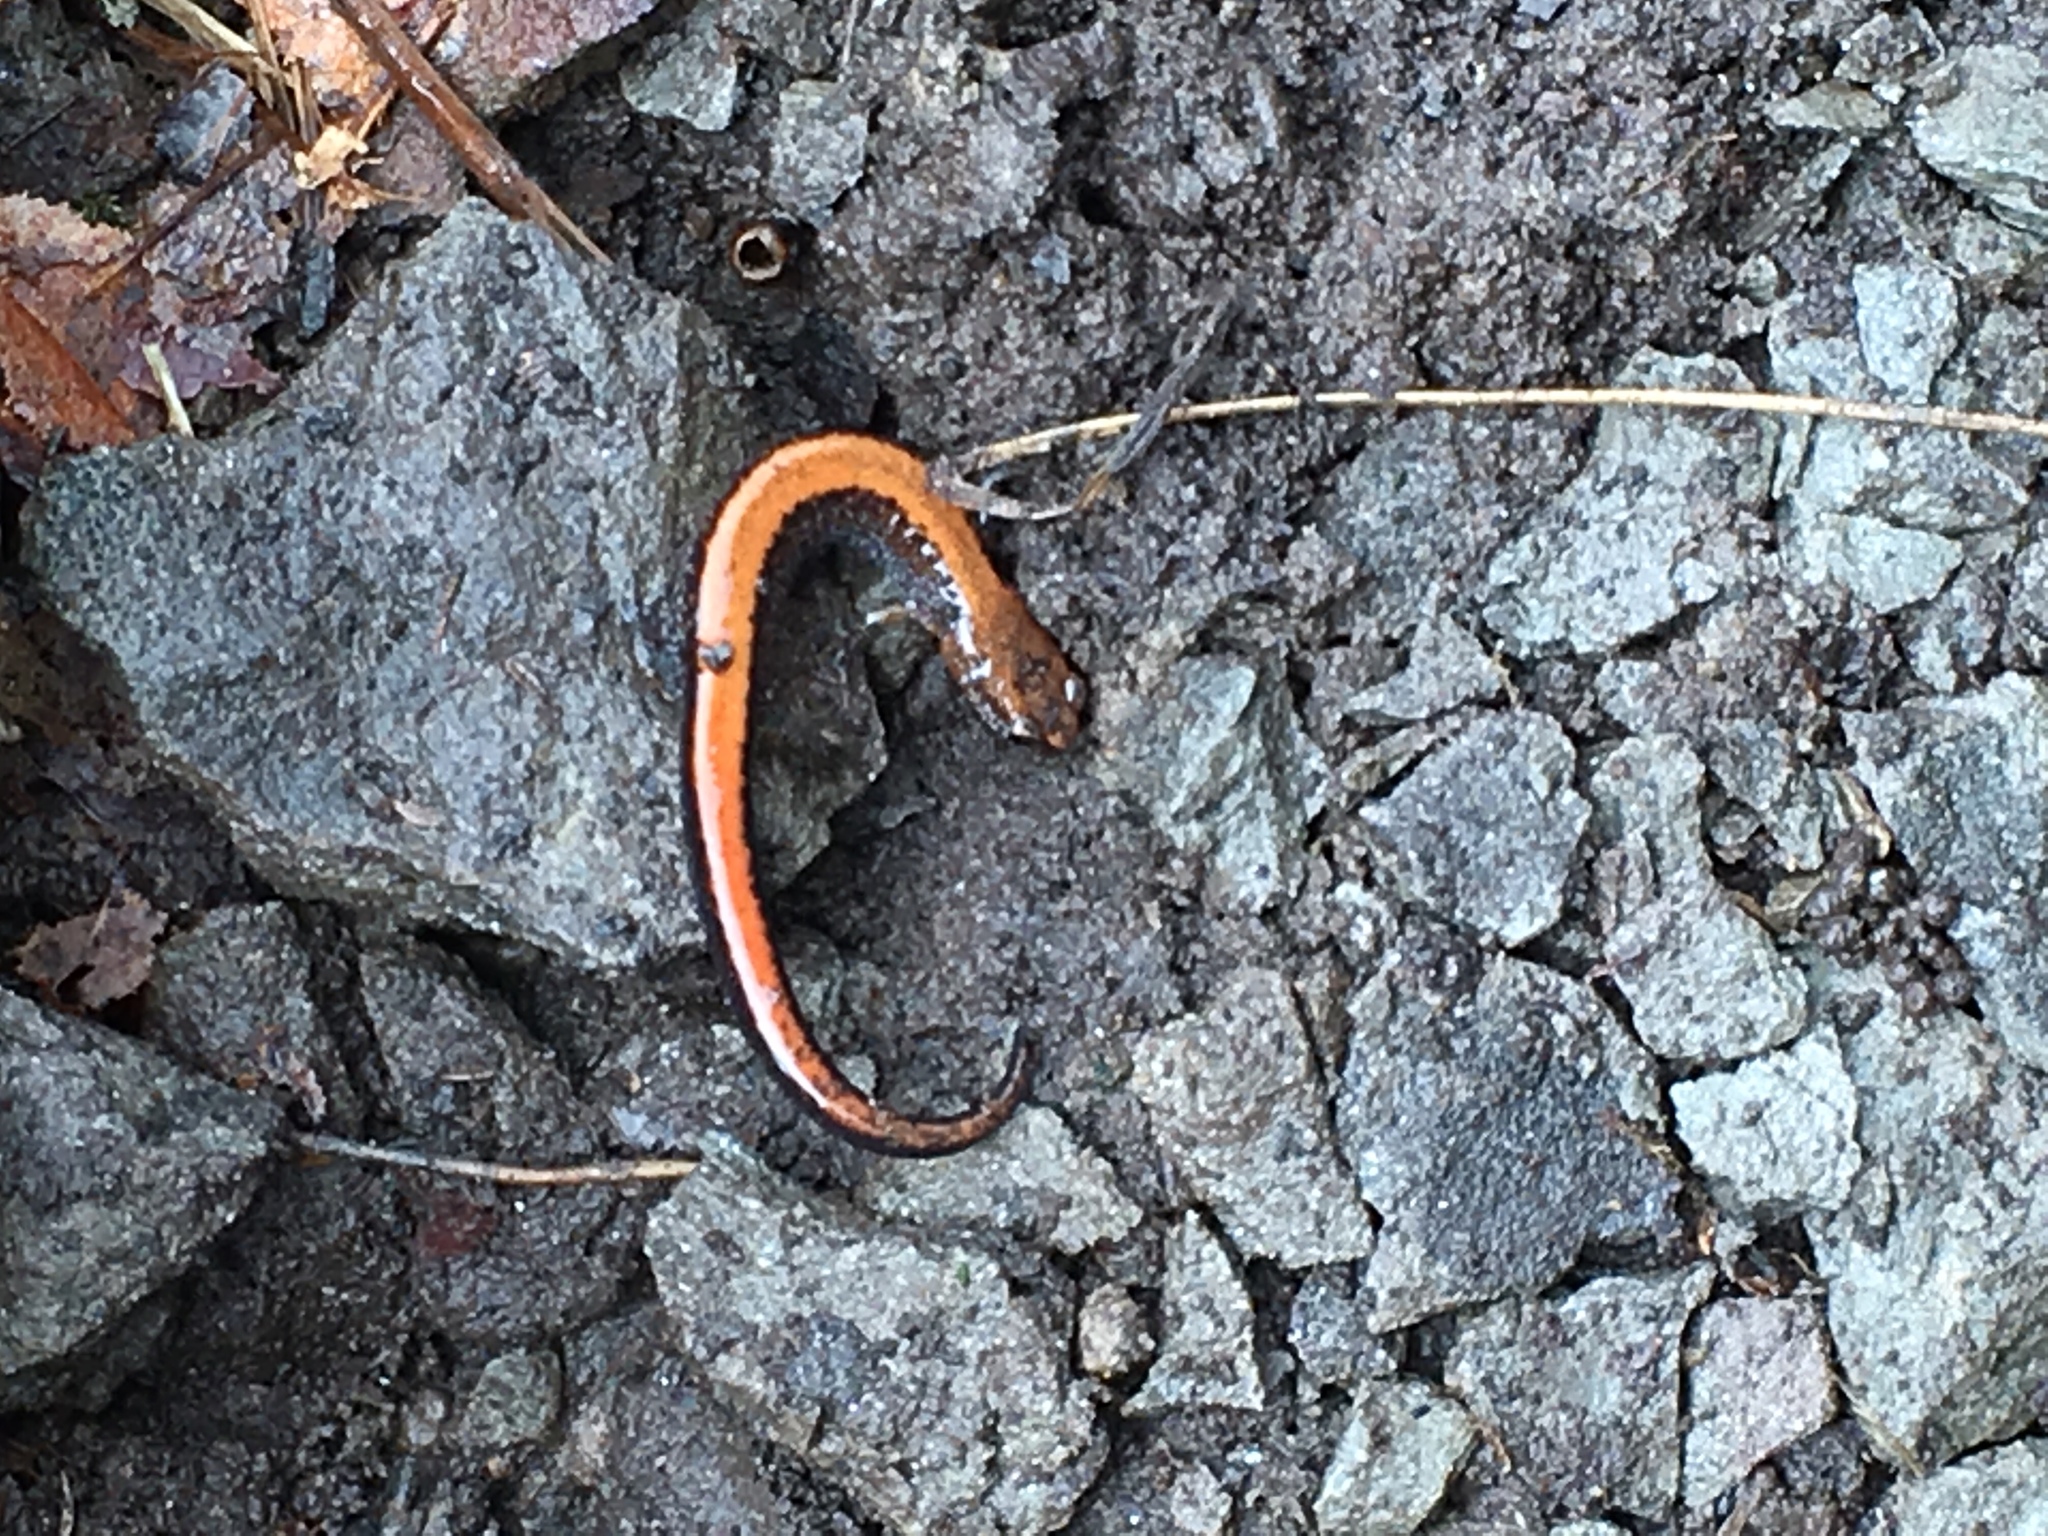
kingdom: Animalia
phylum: Chordata
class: Amphibia
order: Caudata
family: Plethodontidae
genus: Plethodon
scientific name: Plethodon cinereus
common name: Redback salamander
